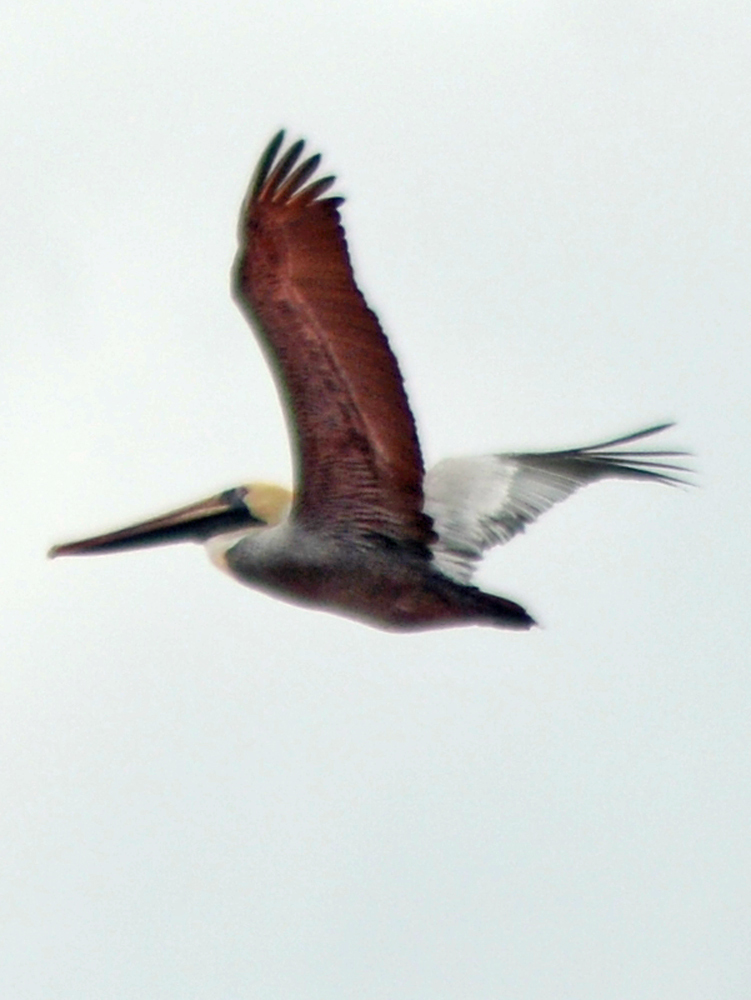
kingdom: Animalia
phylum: Chordata
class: Aves
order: Pelecaniformes
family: Pelecanidae
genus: Pelecanus
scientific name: Pelecanus occidentalis
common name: Brown pelican
